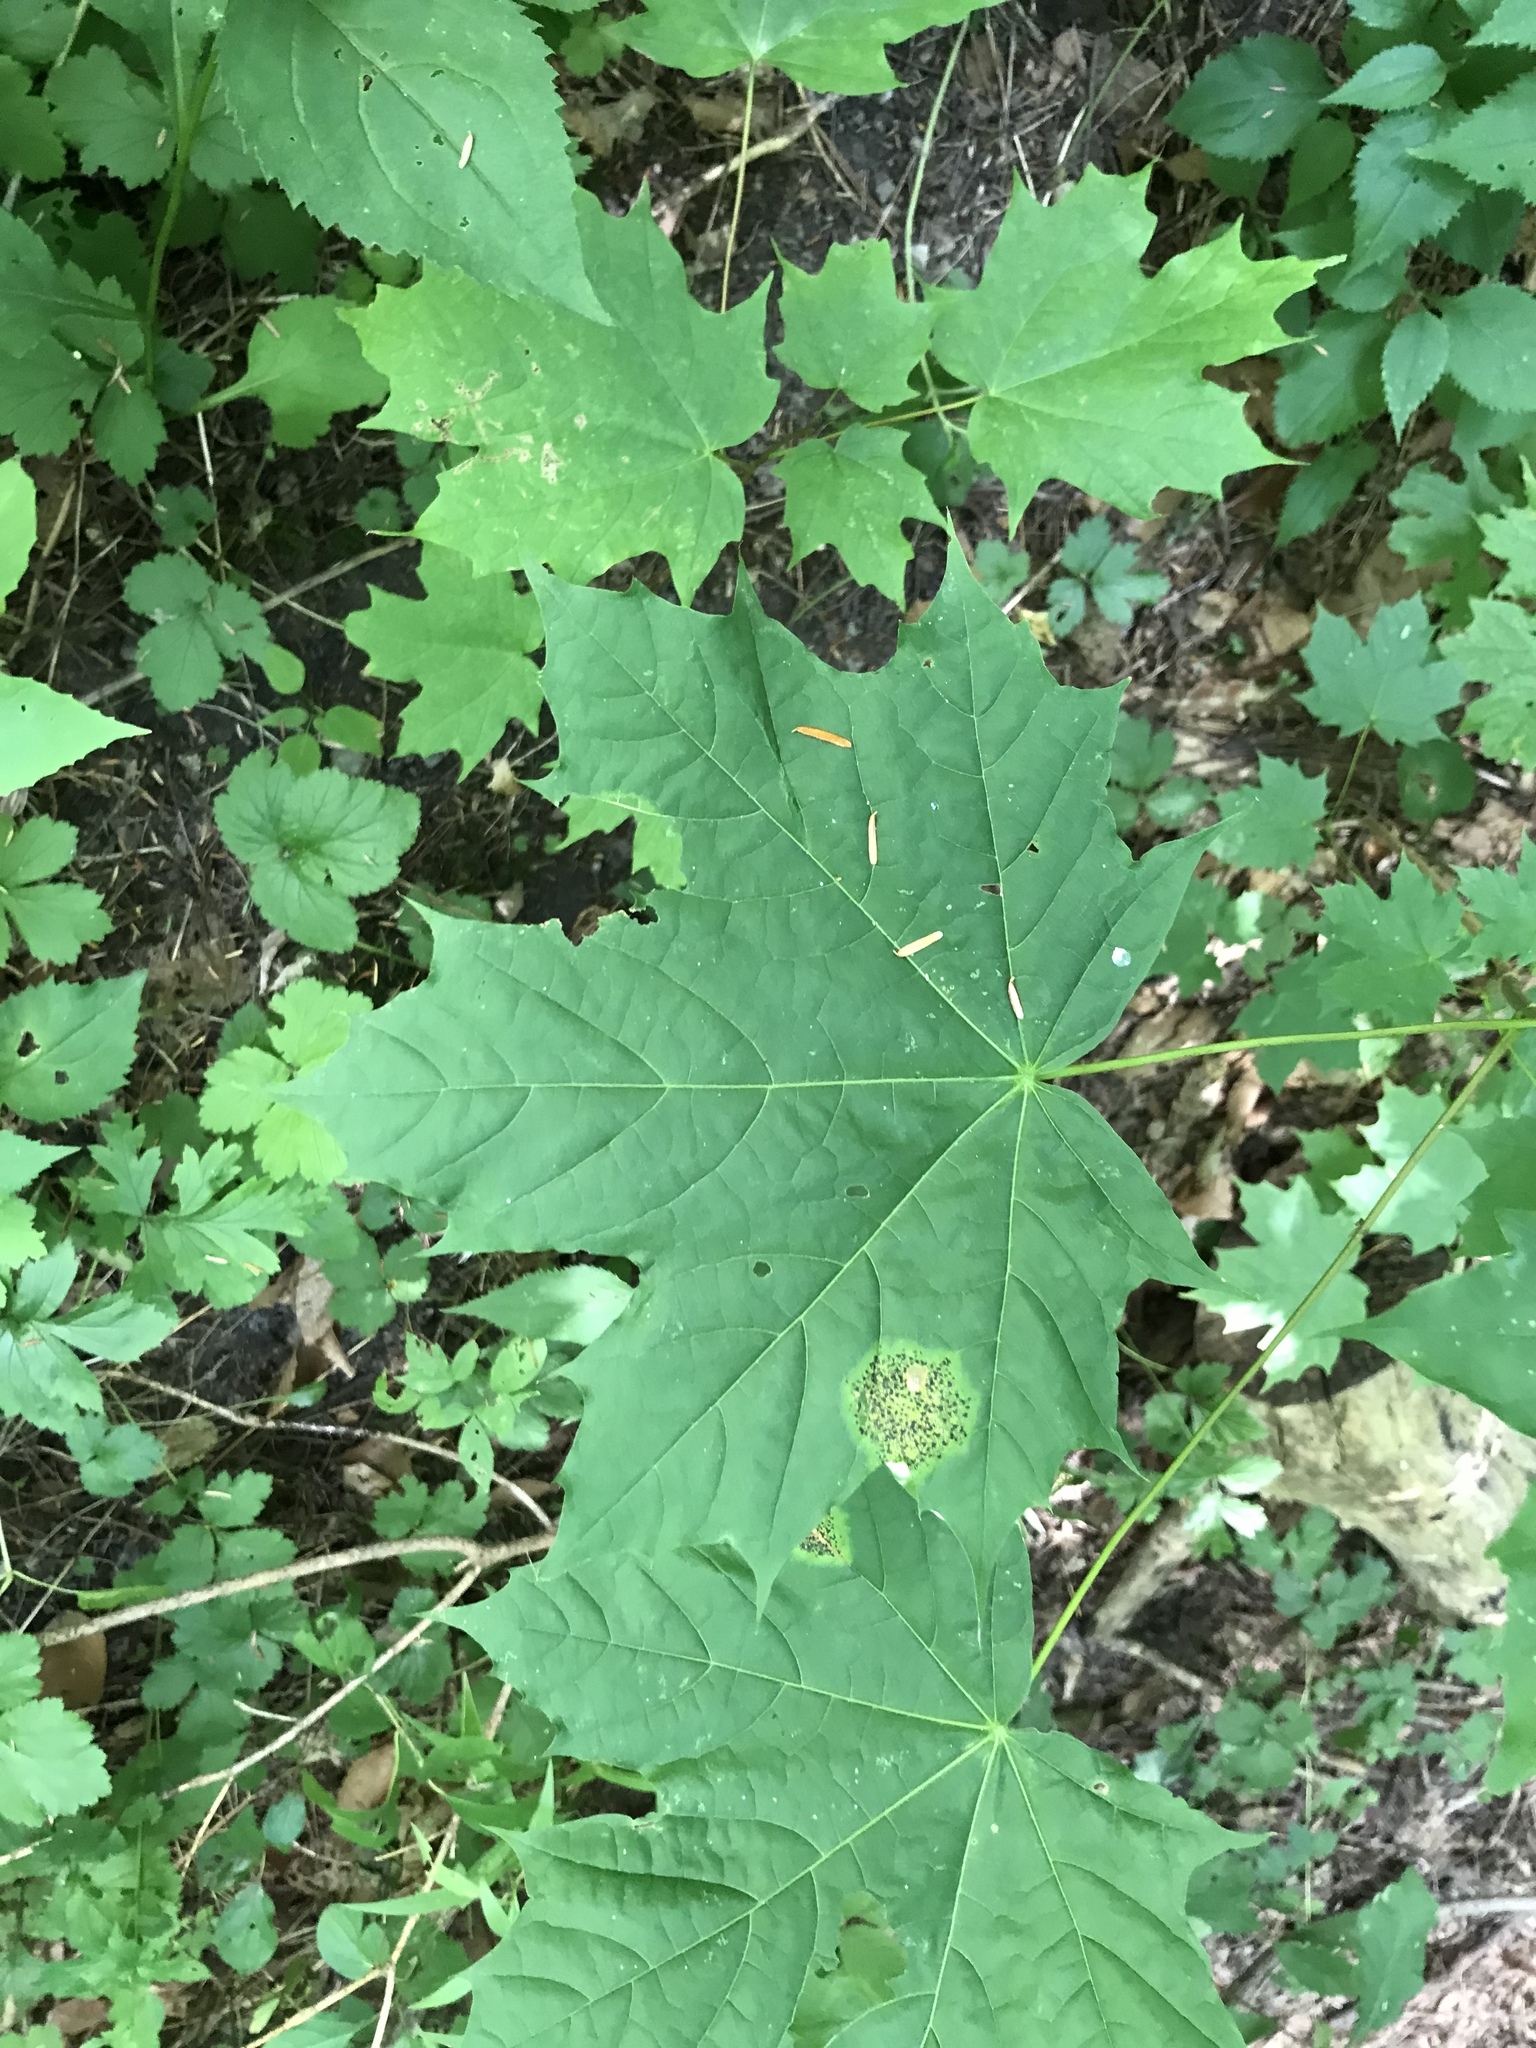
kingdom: Plantae
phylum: Tracheophyta
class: Magnoliopsida
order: Sapindales
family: Sapindaceae
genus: Acer
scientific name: Acer platanoides
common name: Norway maple
